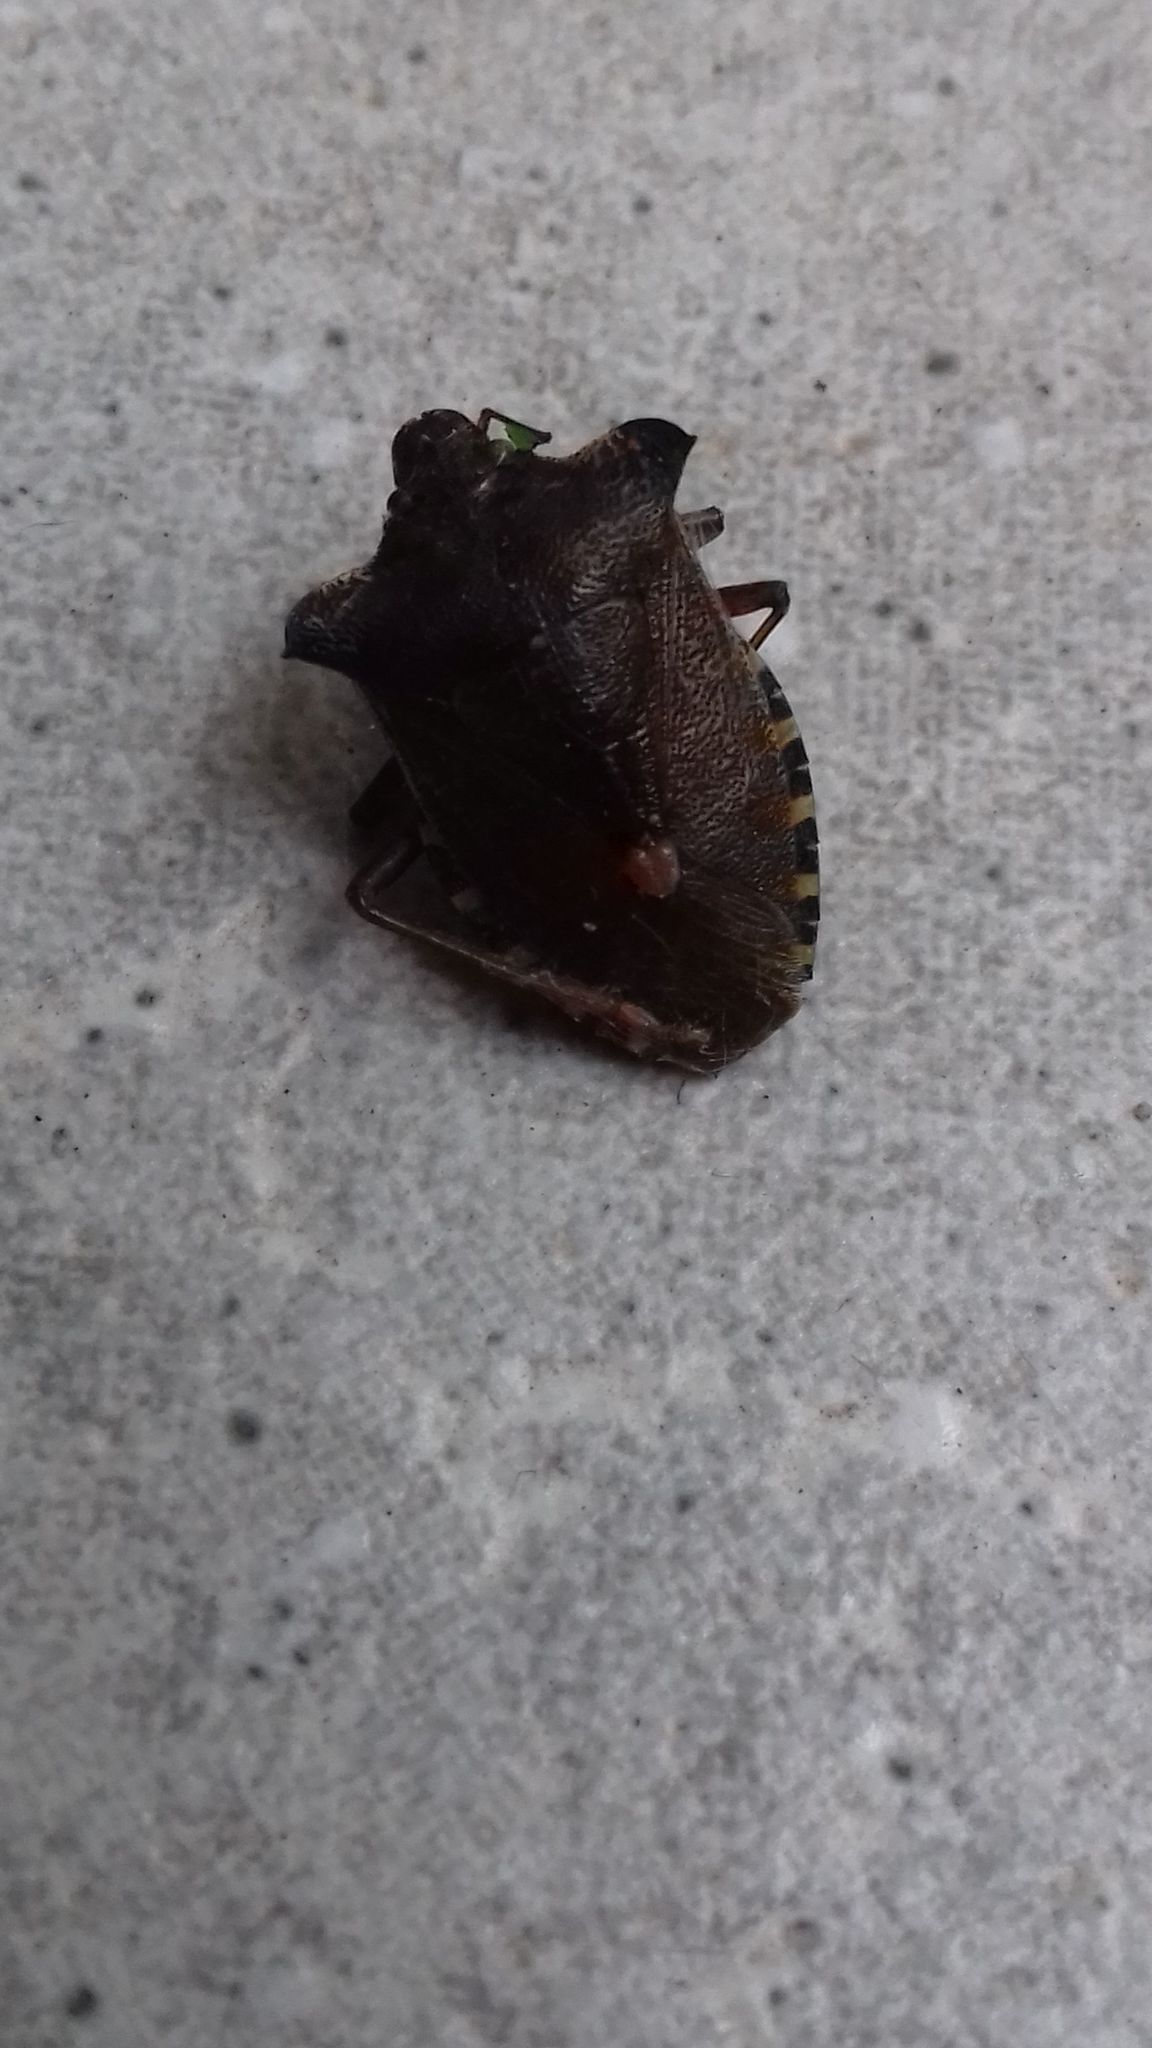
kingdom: Animalia
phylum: Arthropoda
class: Insecta
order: Hemiptera
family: Pentatomidae
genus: Pentatoma
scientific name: Pentatoma rufipes
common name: Forest bug
